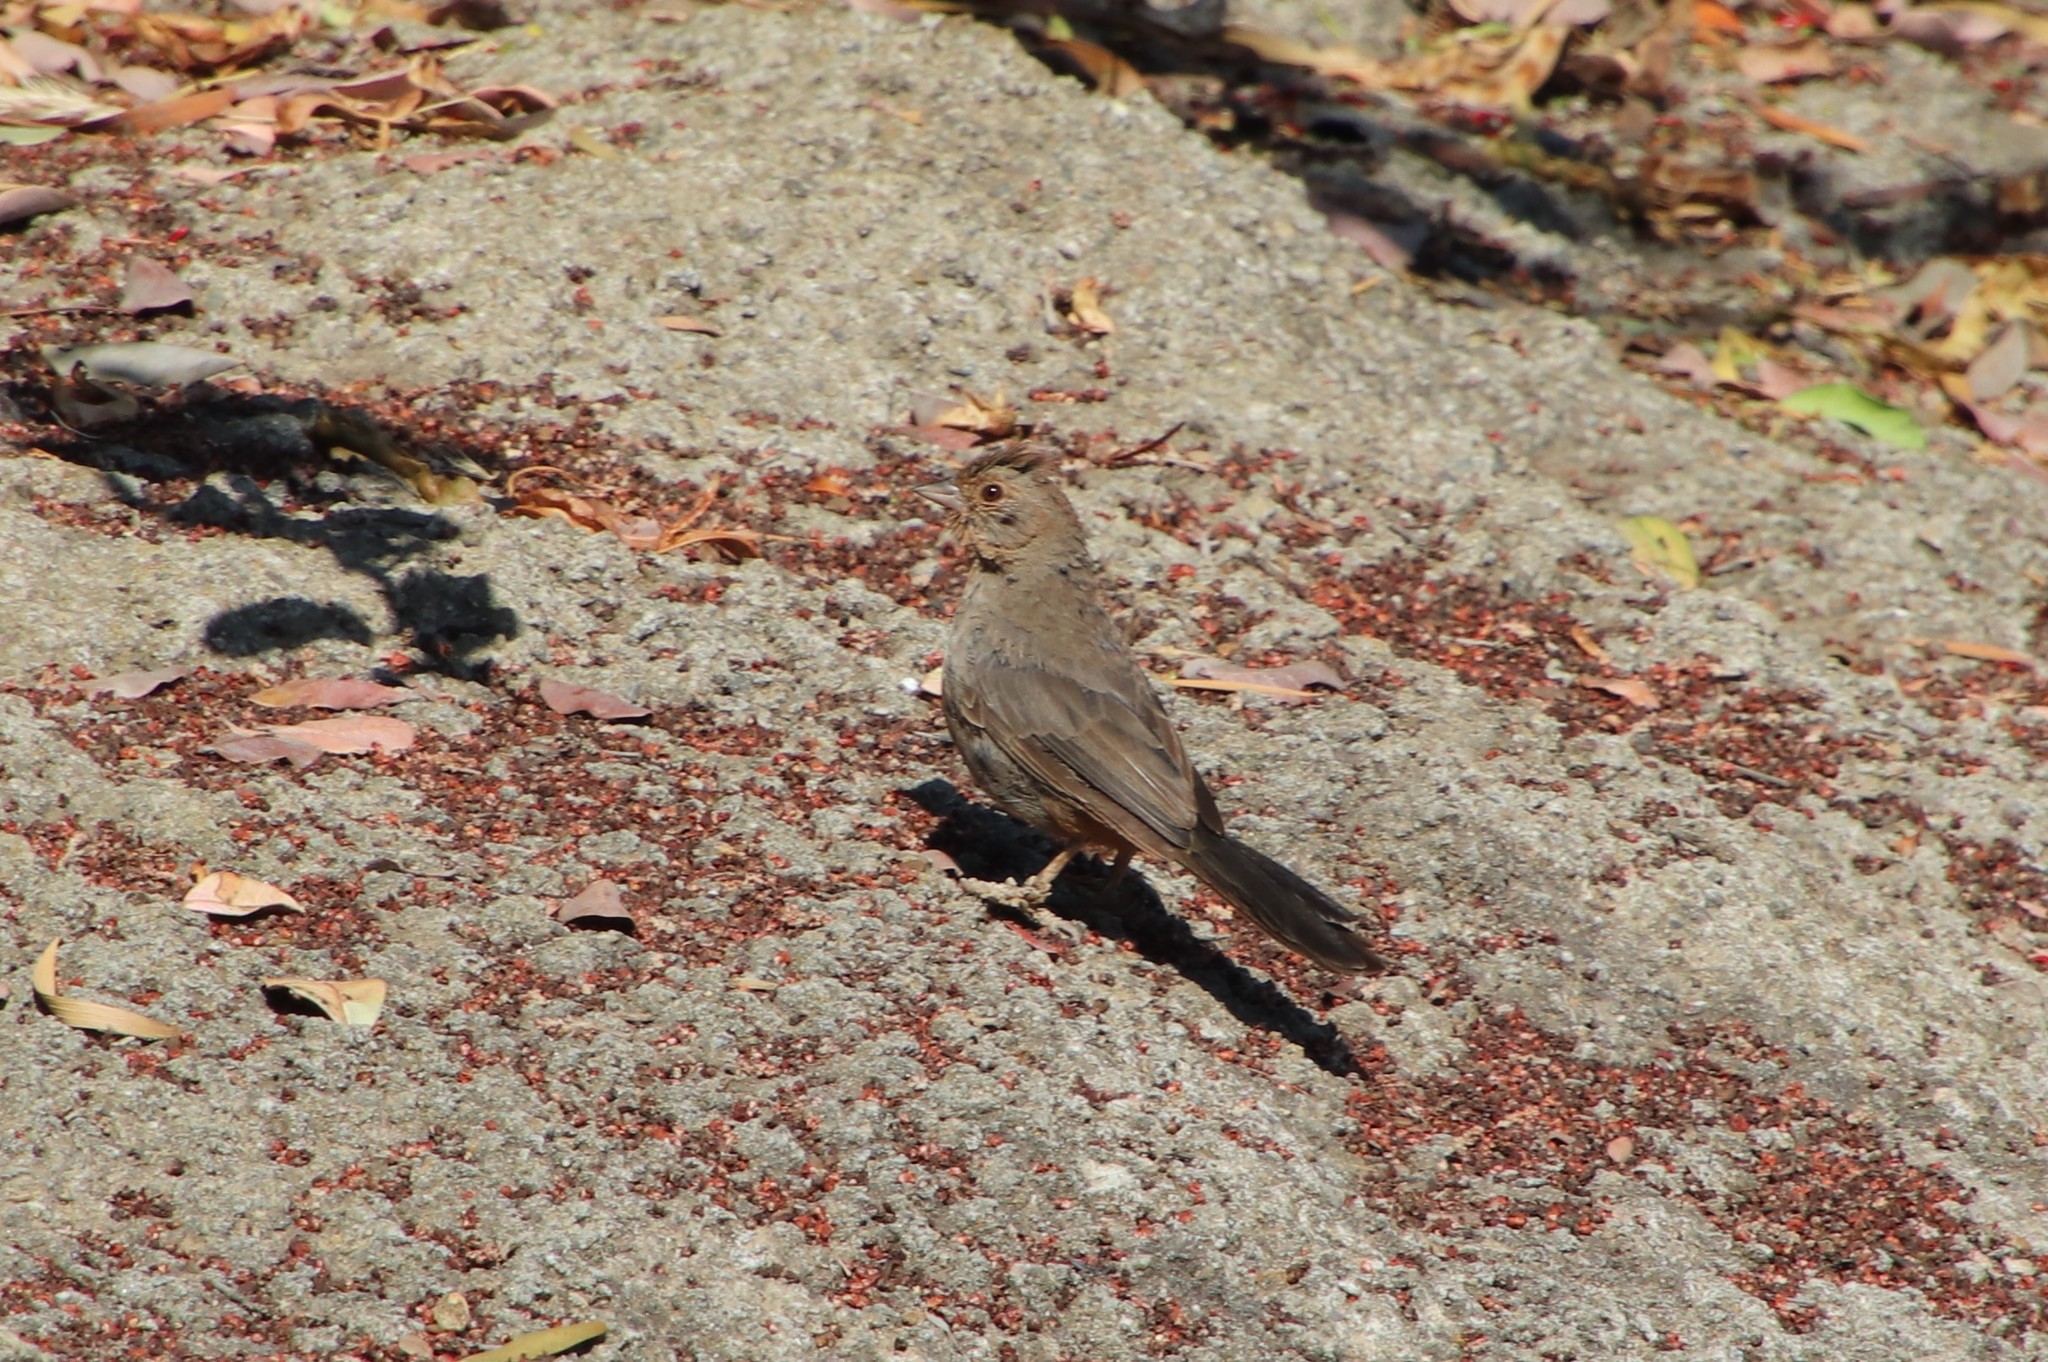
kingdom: Animalia
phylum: Chordata
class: Aves
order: Passeriformes
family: Passerellidae
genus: Melozone
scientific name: Melozone crissalis
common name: California towhee
